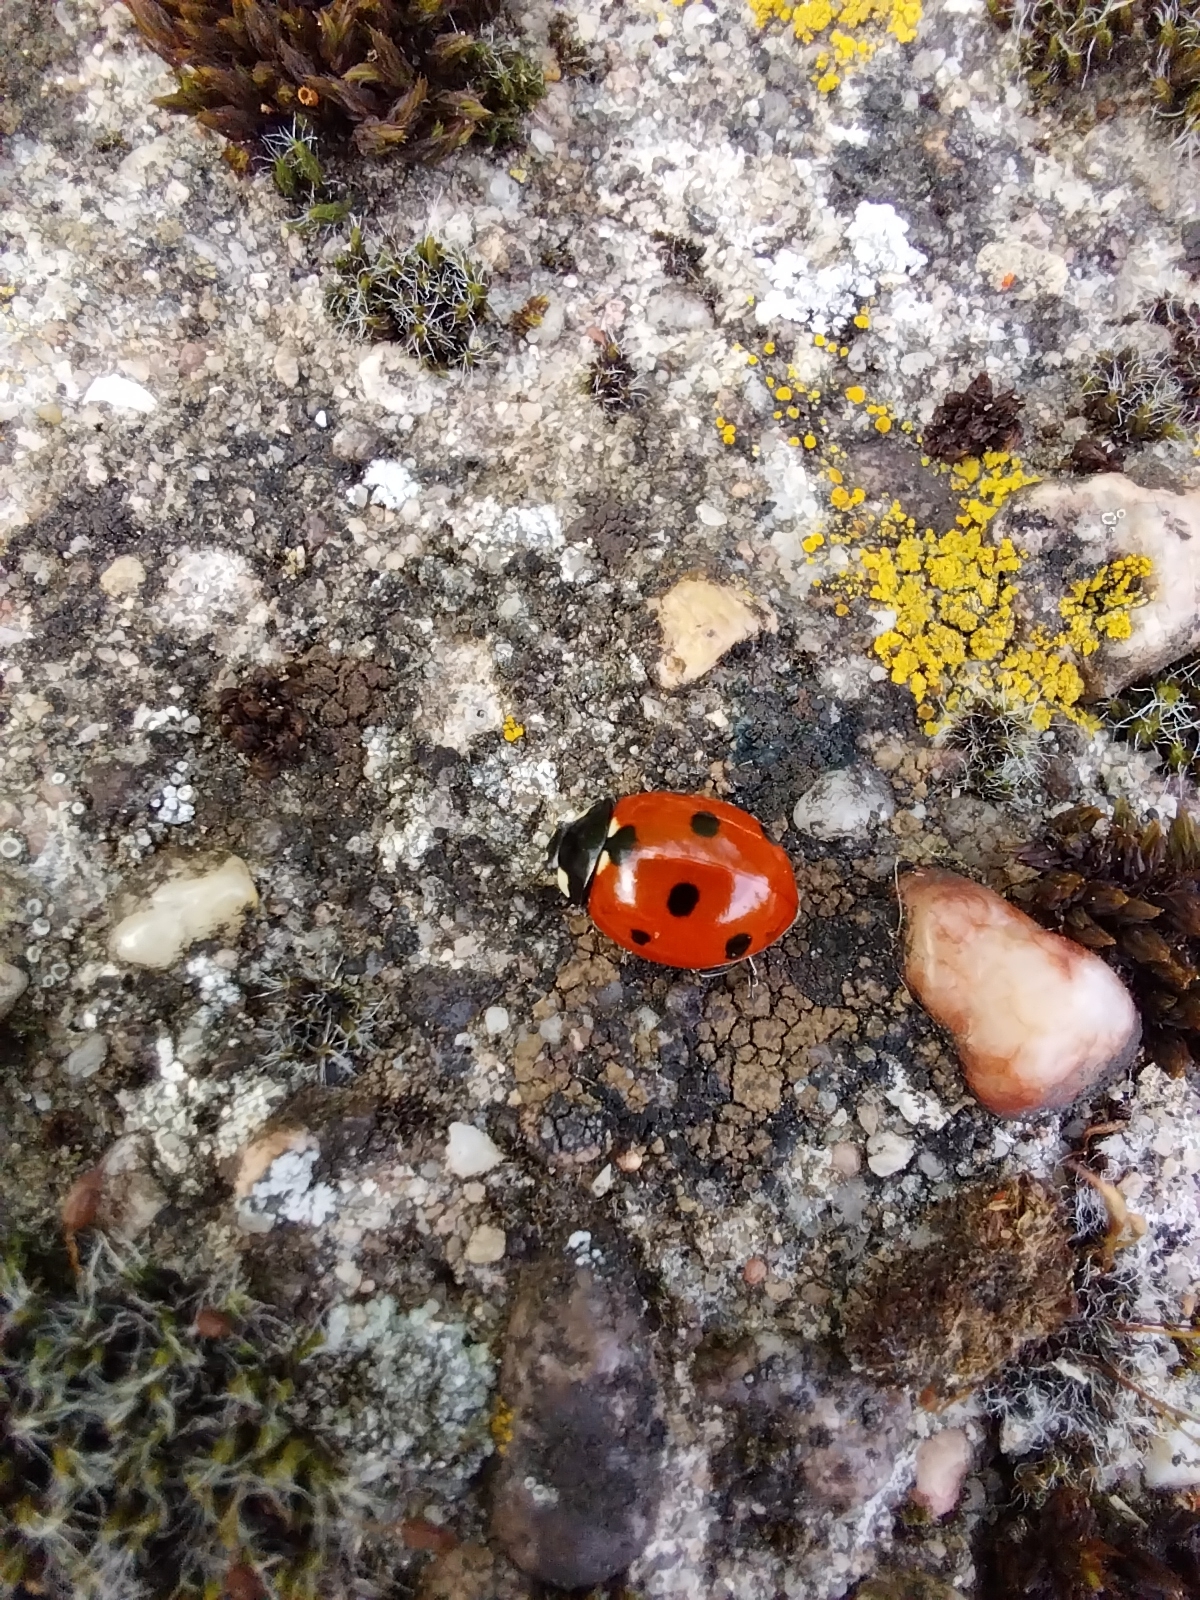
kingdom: Animalia
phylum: Arthropoda
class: Insecta
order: Coleoptera
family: Coccinellidae
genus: Coccinella
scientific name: Coccinella septempunctata
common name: Sevenspotted lady beetle
